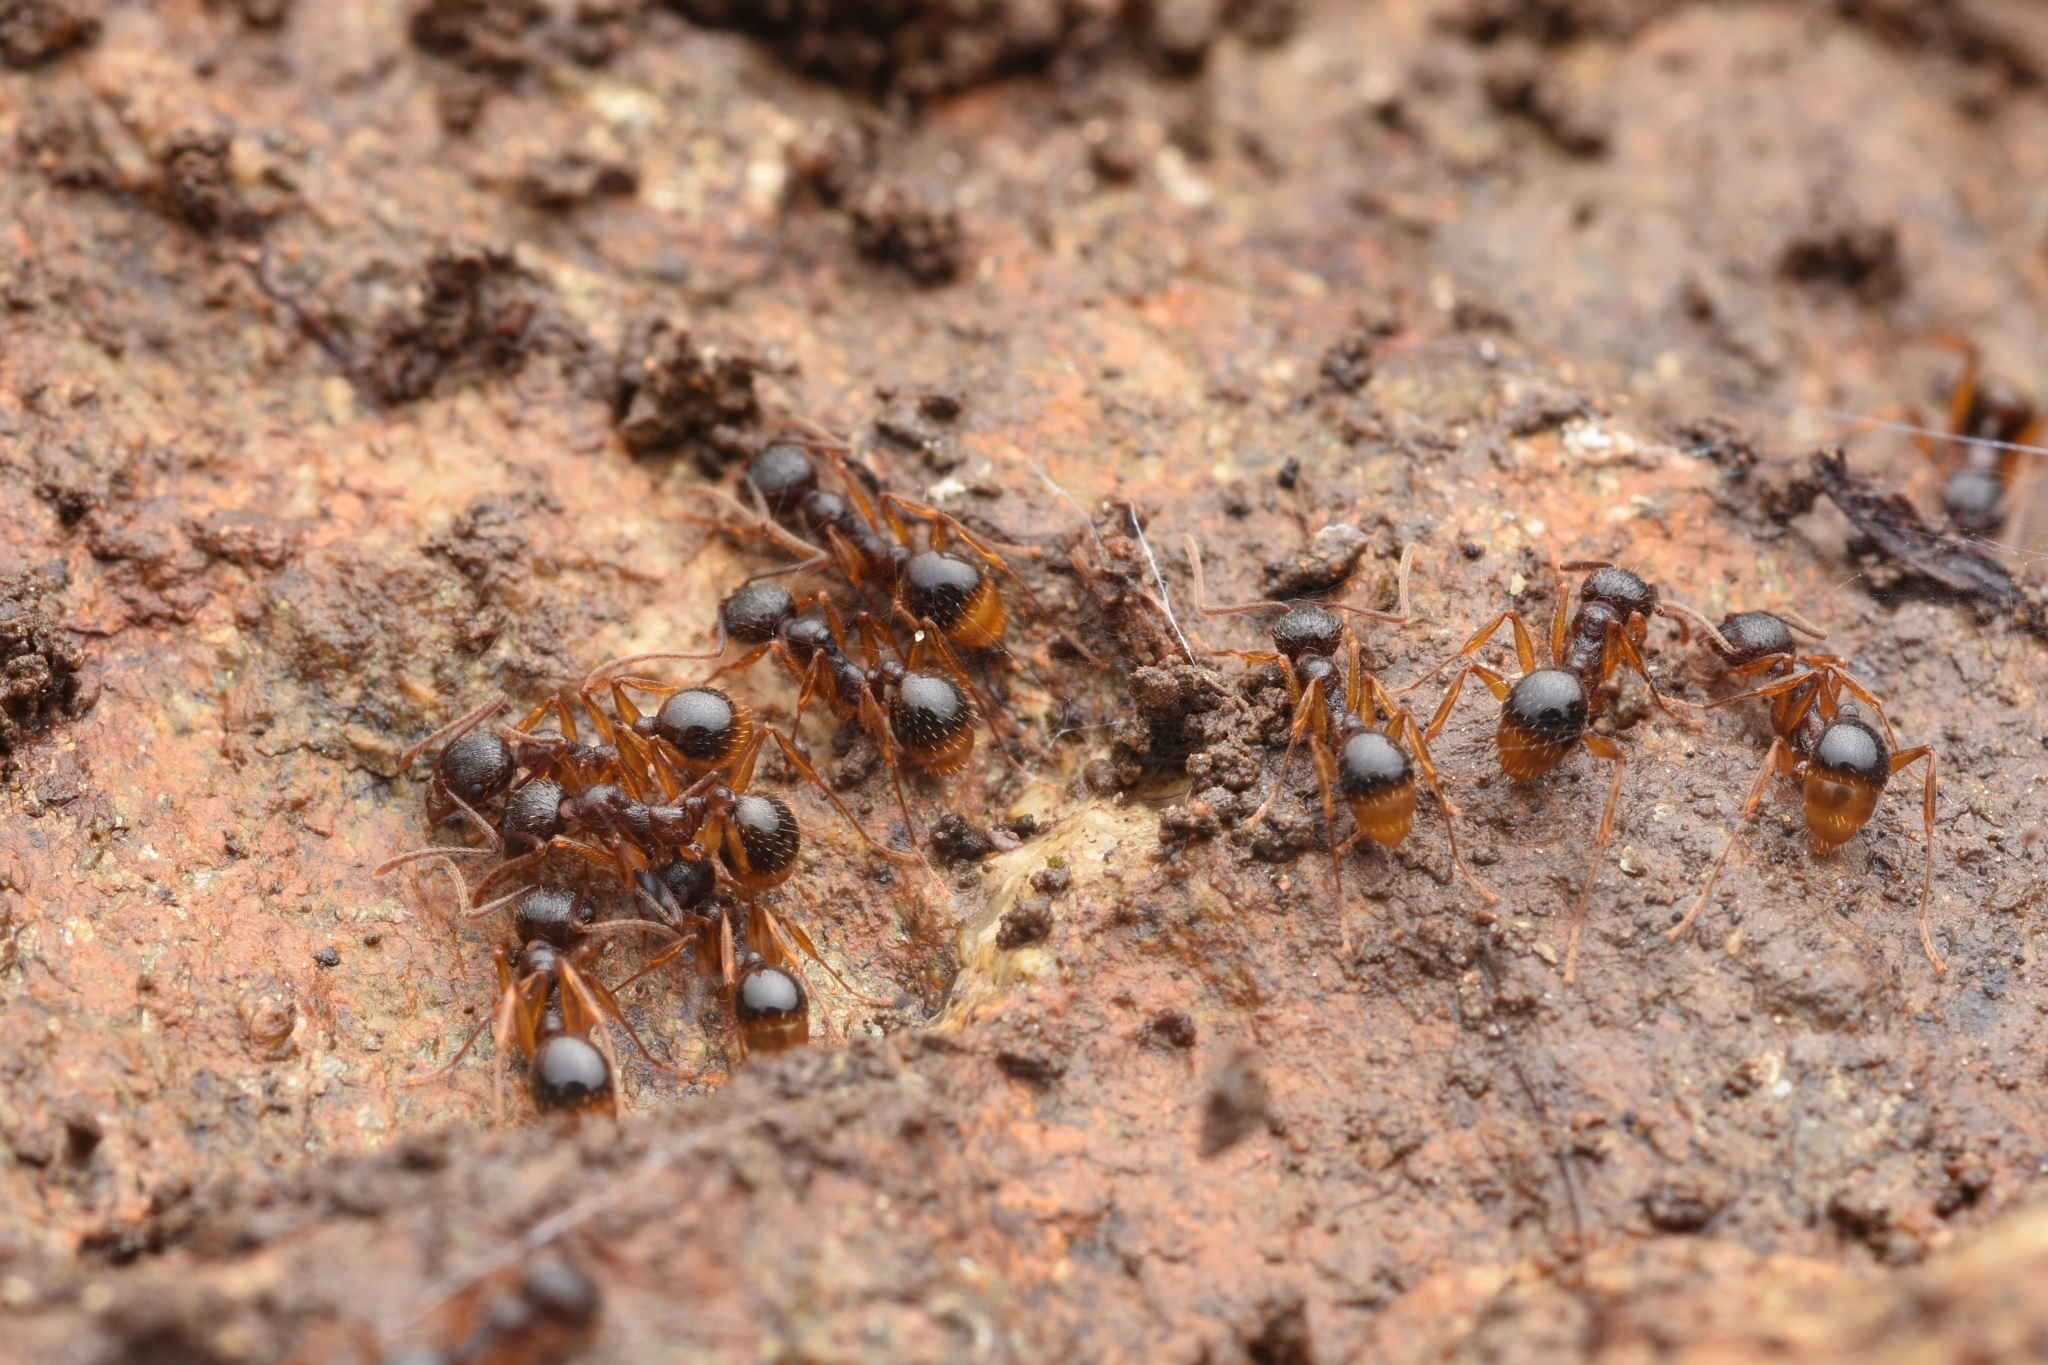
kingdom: Animalia
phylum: Arthropoda
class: Insecta
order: Hymenoptera
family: Formicidae
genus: Aphaenogaster
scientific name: Aphaenogaster japonica
